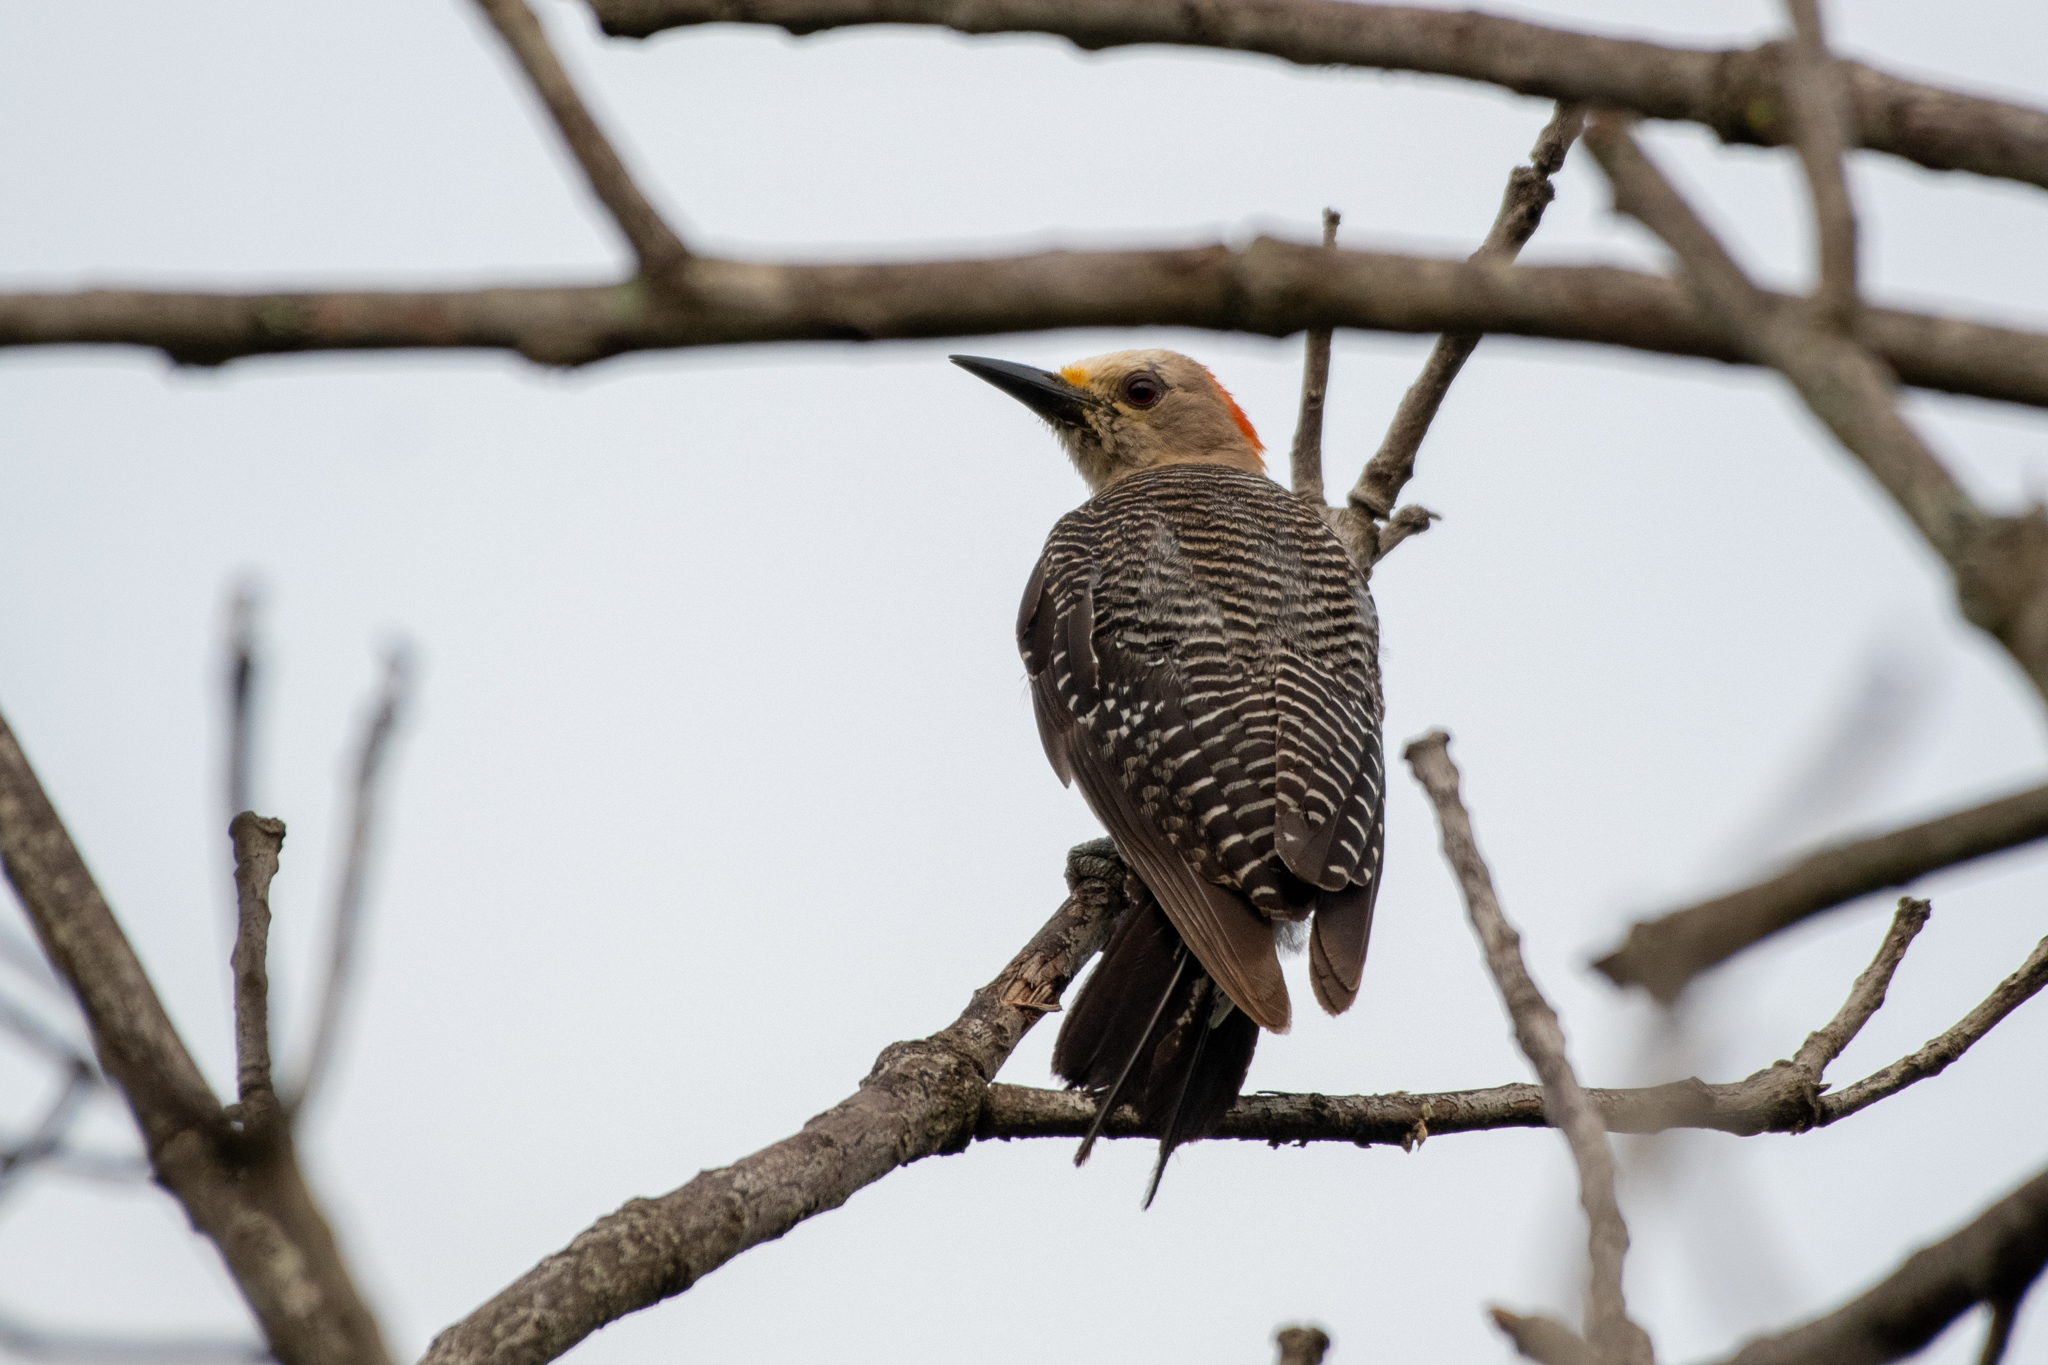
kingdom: Animalia
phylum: Chordata
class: Aves
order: Piciformes
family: Picidae
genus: Melanerpes
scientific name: Melanerpes aurifrons
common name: Golden-fronted woodpecker
